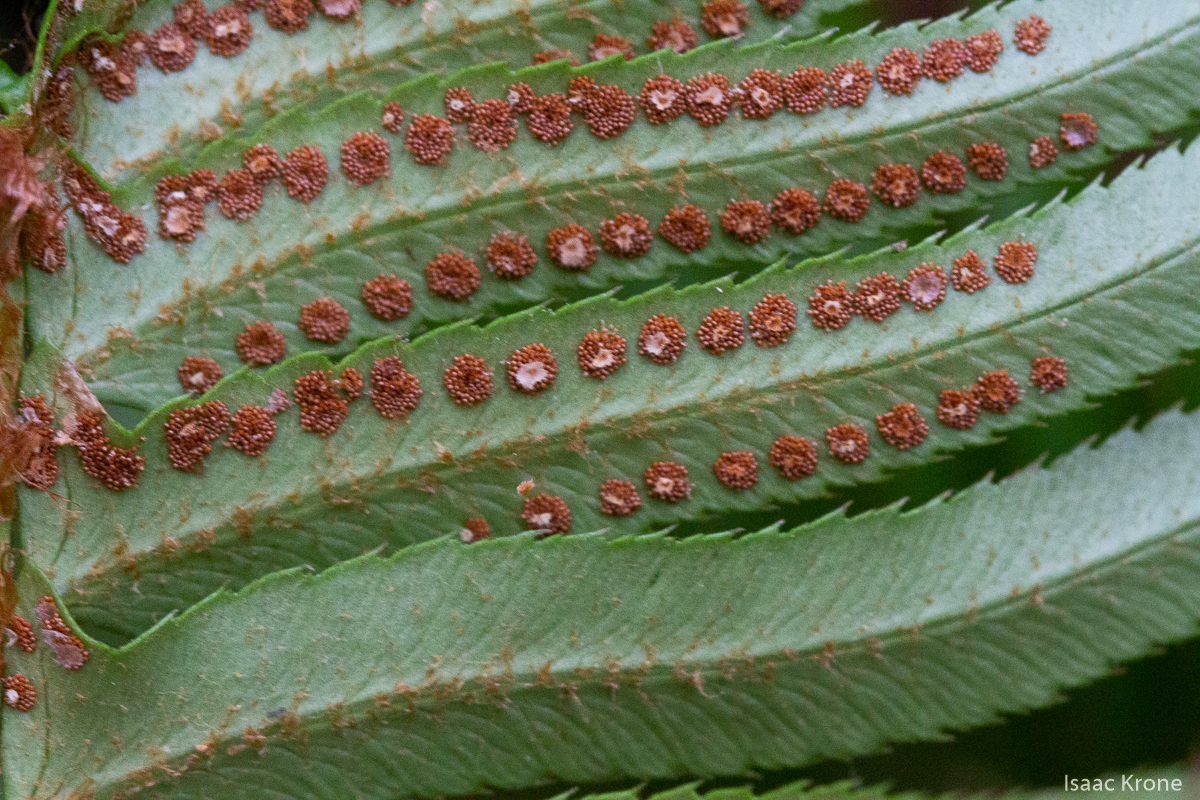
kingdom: Plantae
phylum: Tracheophyta
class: Polypodiopsida
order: Polypodiales
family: Dryopteridaceae
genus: Polystichum
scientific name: Polystichum munitum
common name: Western sword-fern
